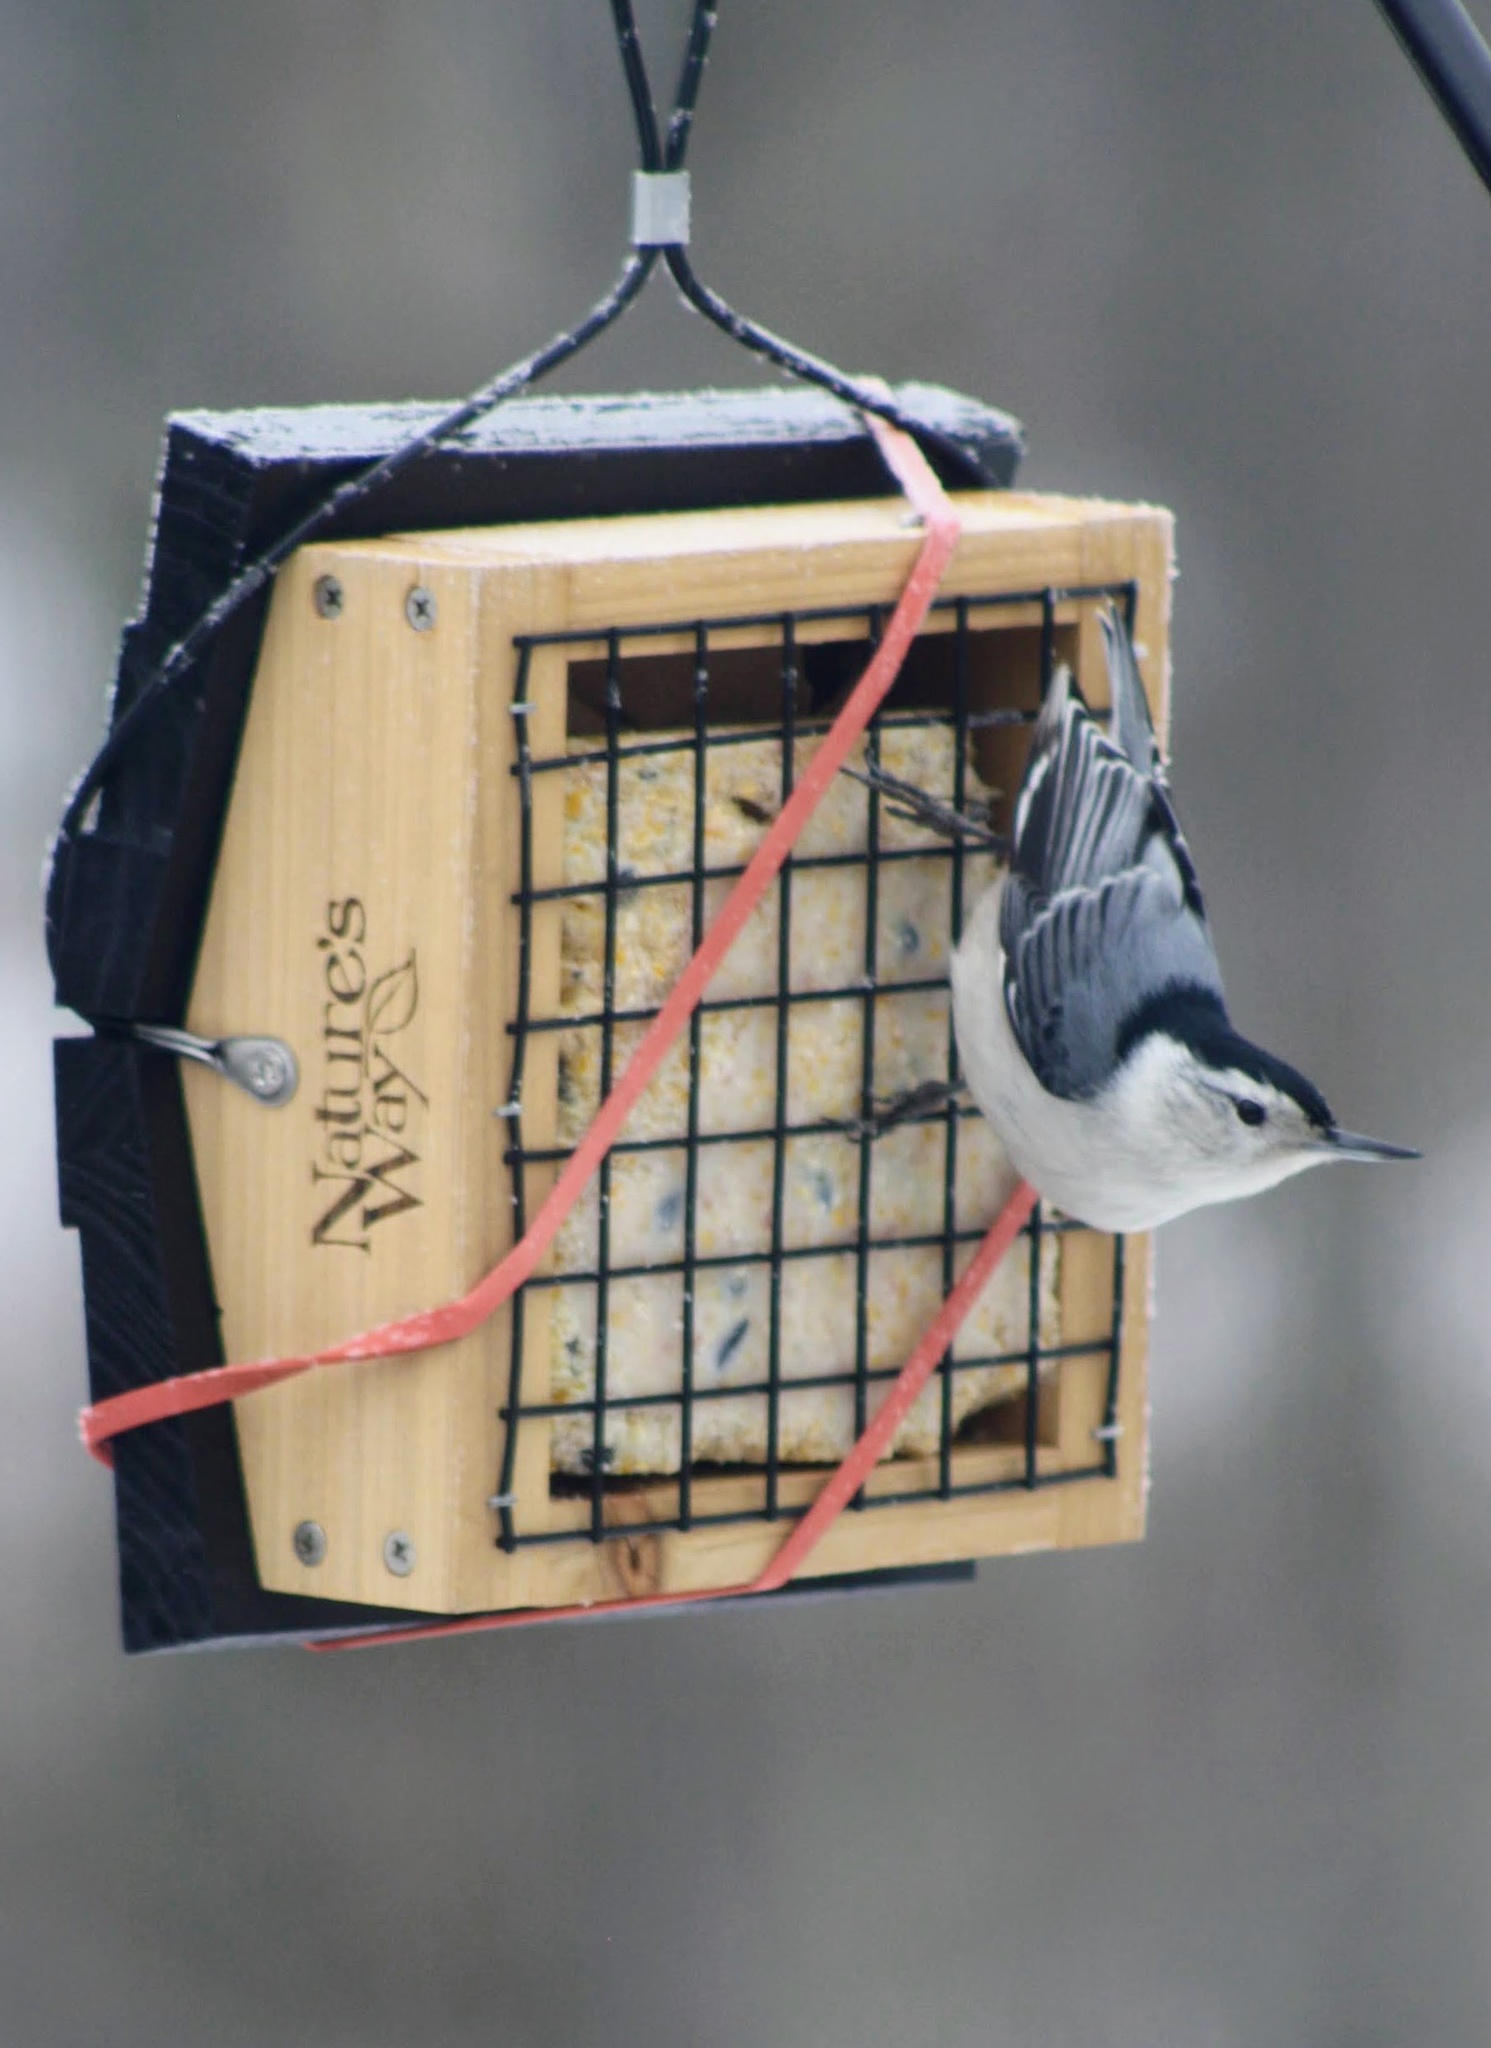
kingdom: Animalia
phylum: Chordata
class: Aves
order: Passeriformes
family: Sittidae
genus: Sitta
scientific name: Sitta carolinensis
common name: White-breasted nuthatch
